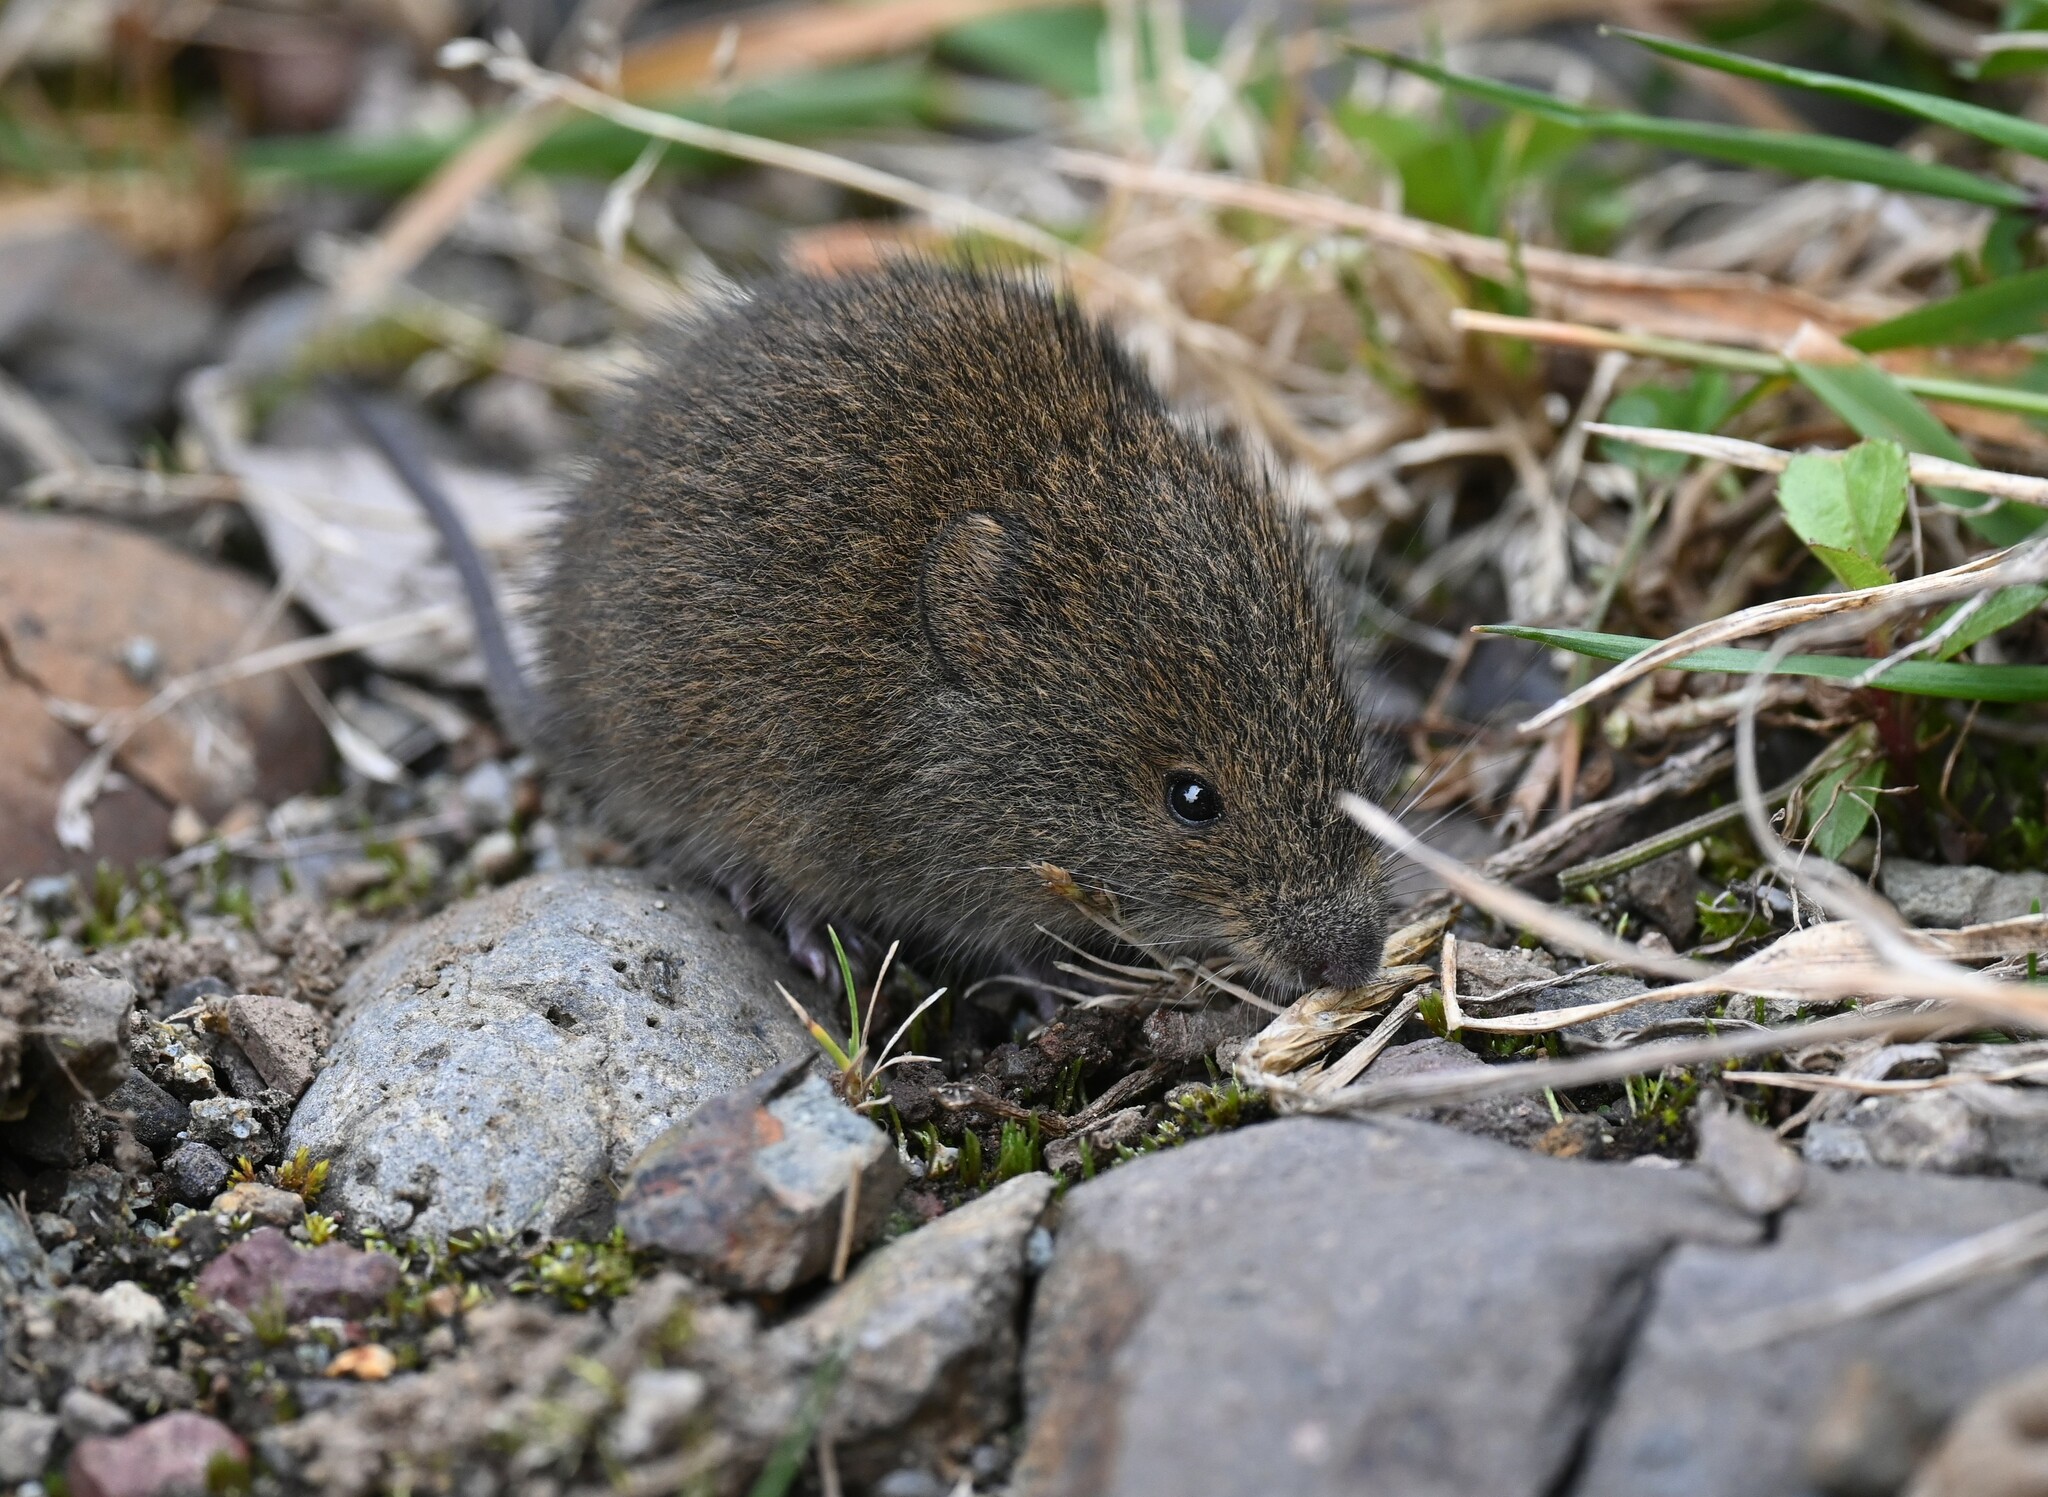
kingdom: Animalia
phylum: Chordata
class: Mammalia
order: Rodentia
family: Cricetidae
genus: Akodon
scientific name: Akodon mollis
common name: Soft-furred akodont
